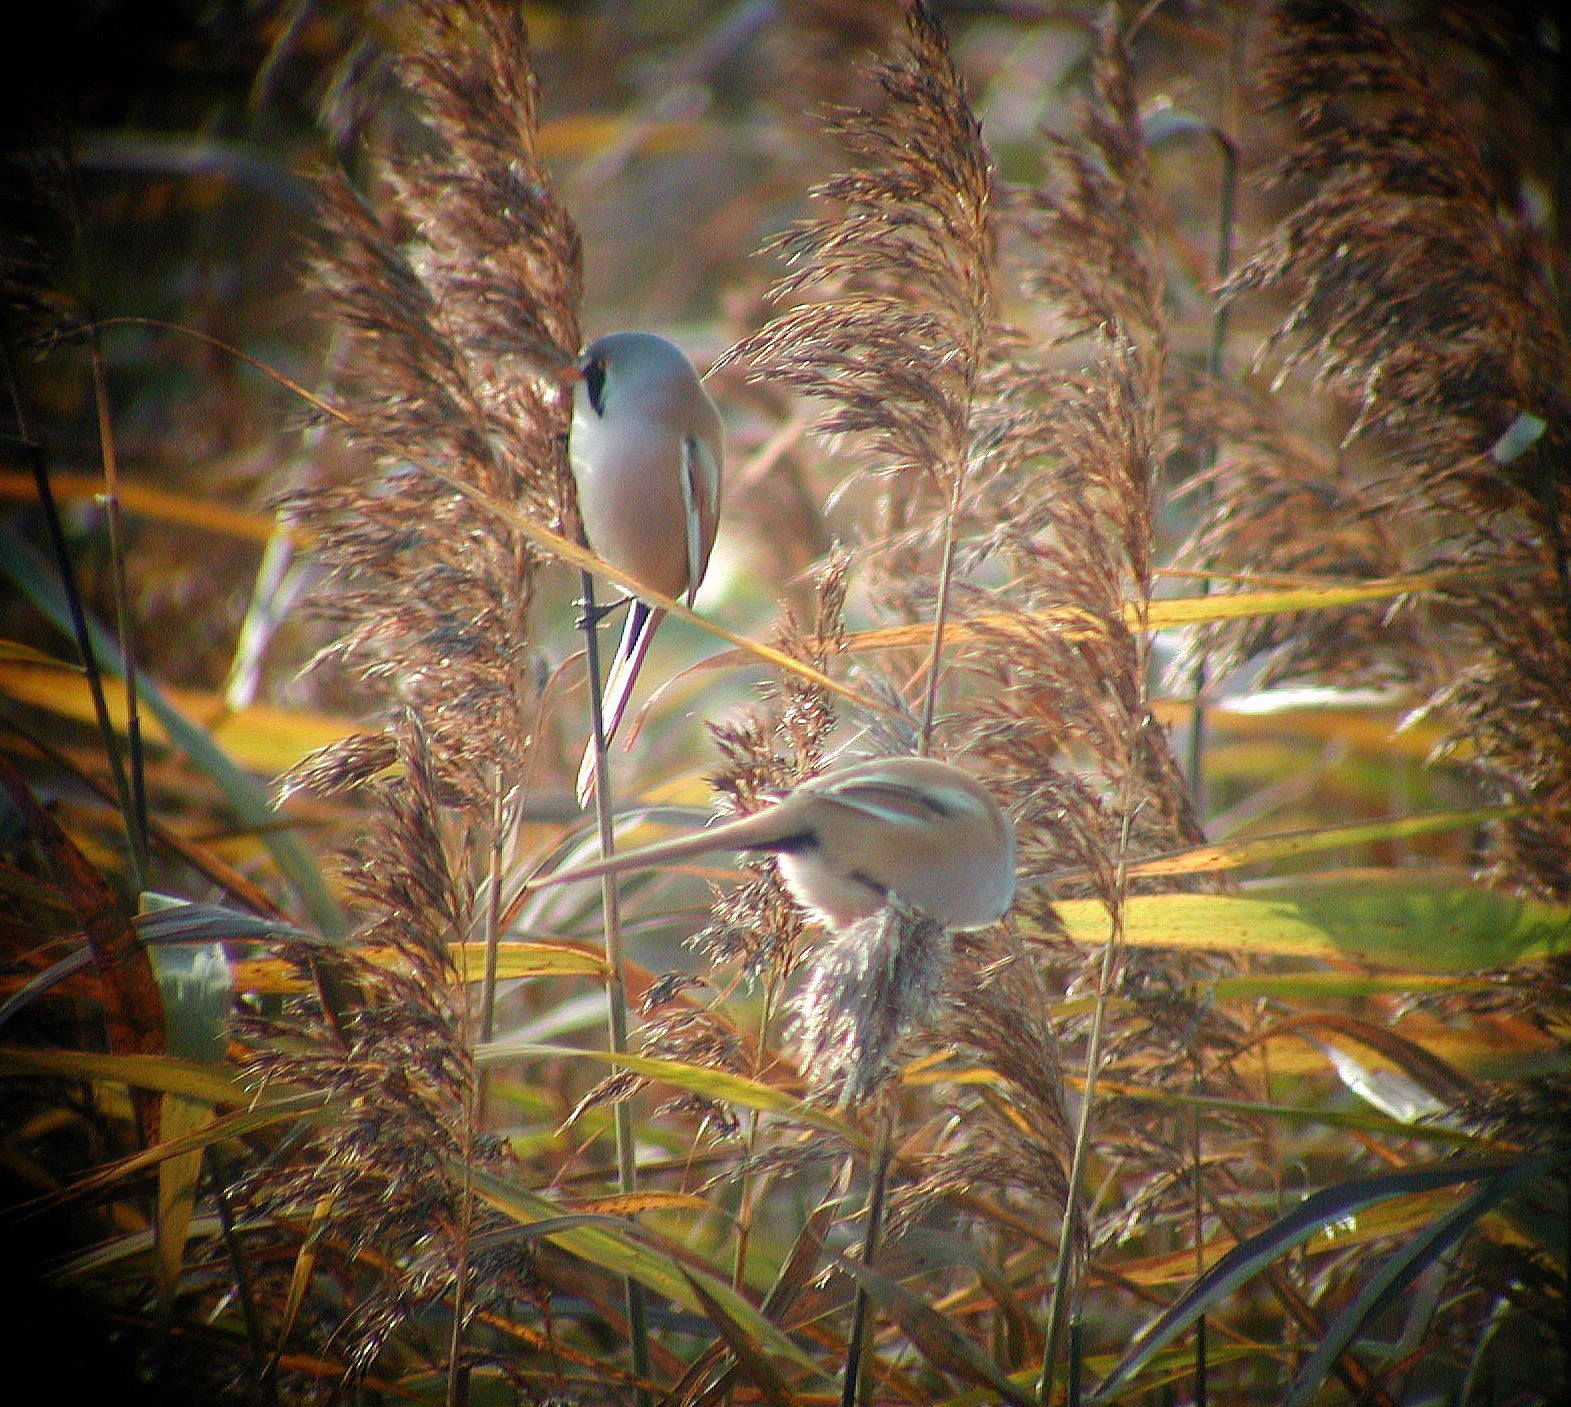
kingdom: Animalia
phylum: Chordata
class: Aves
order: Passeriformes
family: Panuridae
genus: Panurus
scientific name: Panurus biarmicus
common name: Bearded reedling
